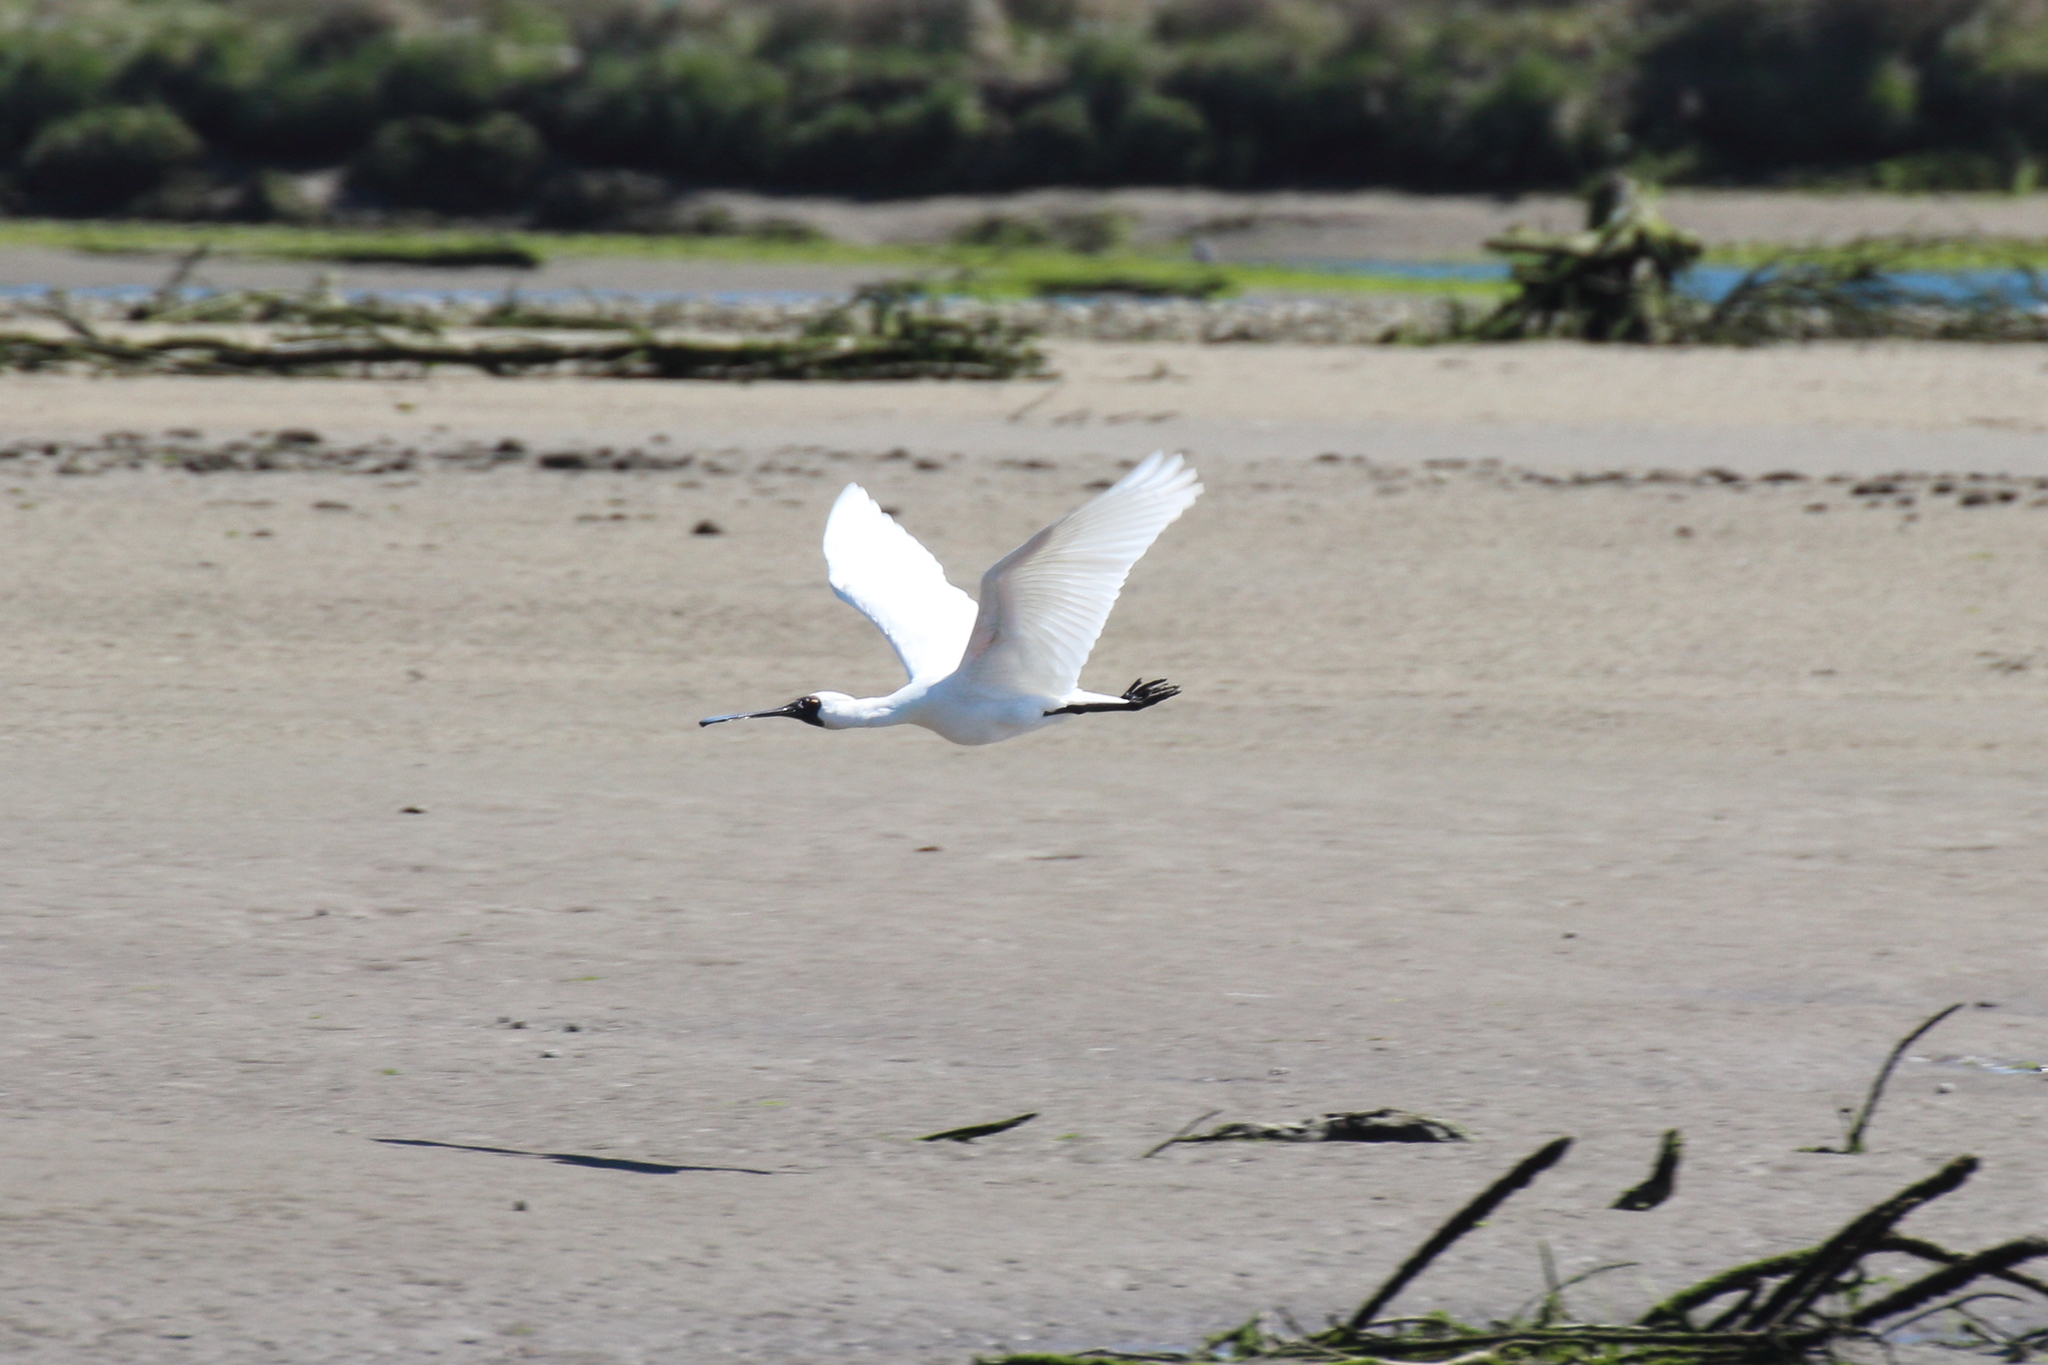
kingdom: Animalia
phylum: Chordata
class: Aves
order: Pelecaniformes
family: Threskiornithidae
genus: Platalea
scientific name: Platalea regia
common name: Royal spoonbill
